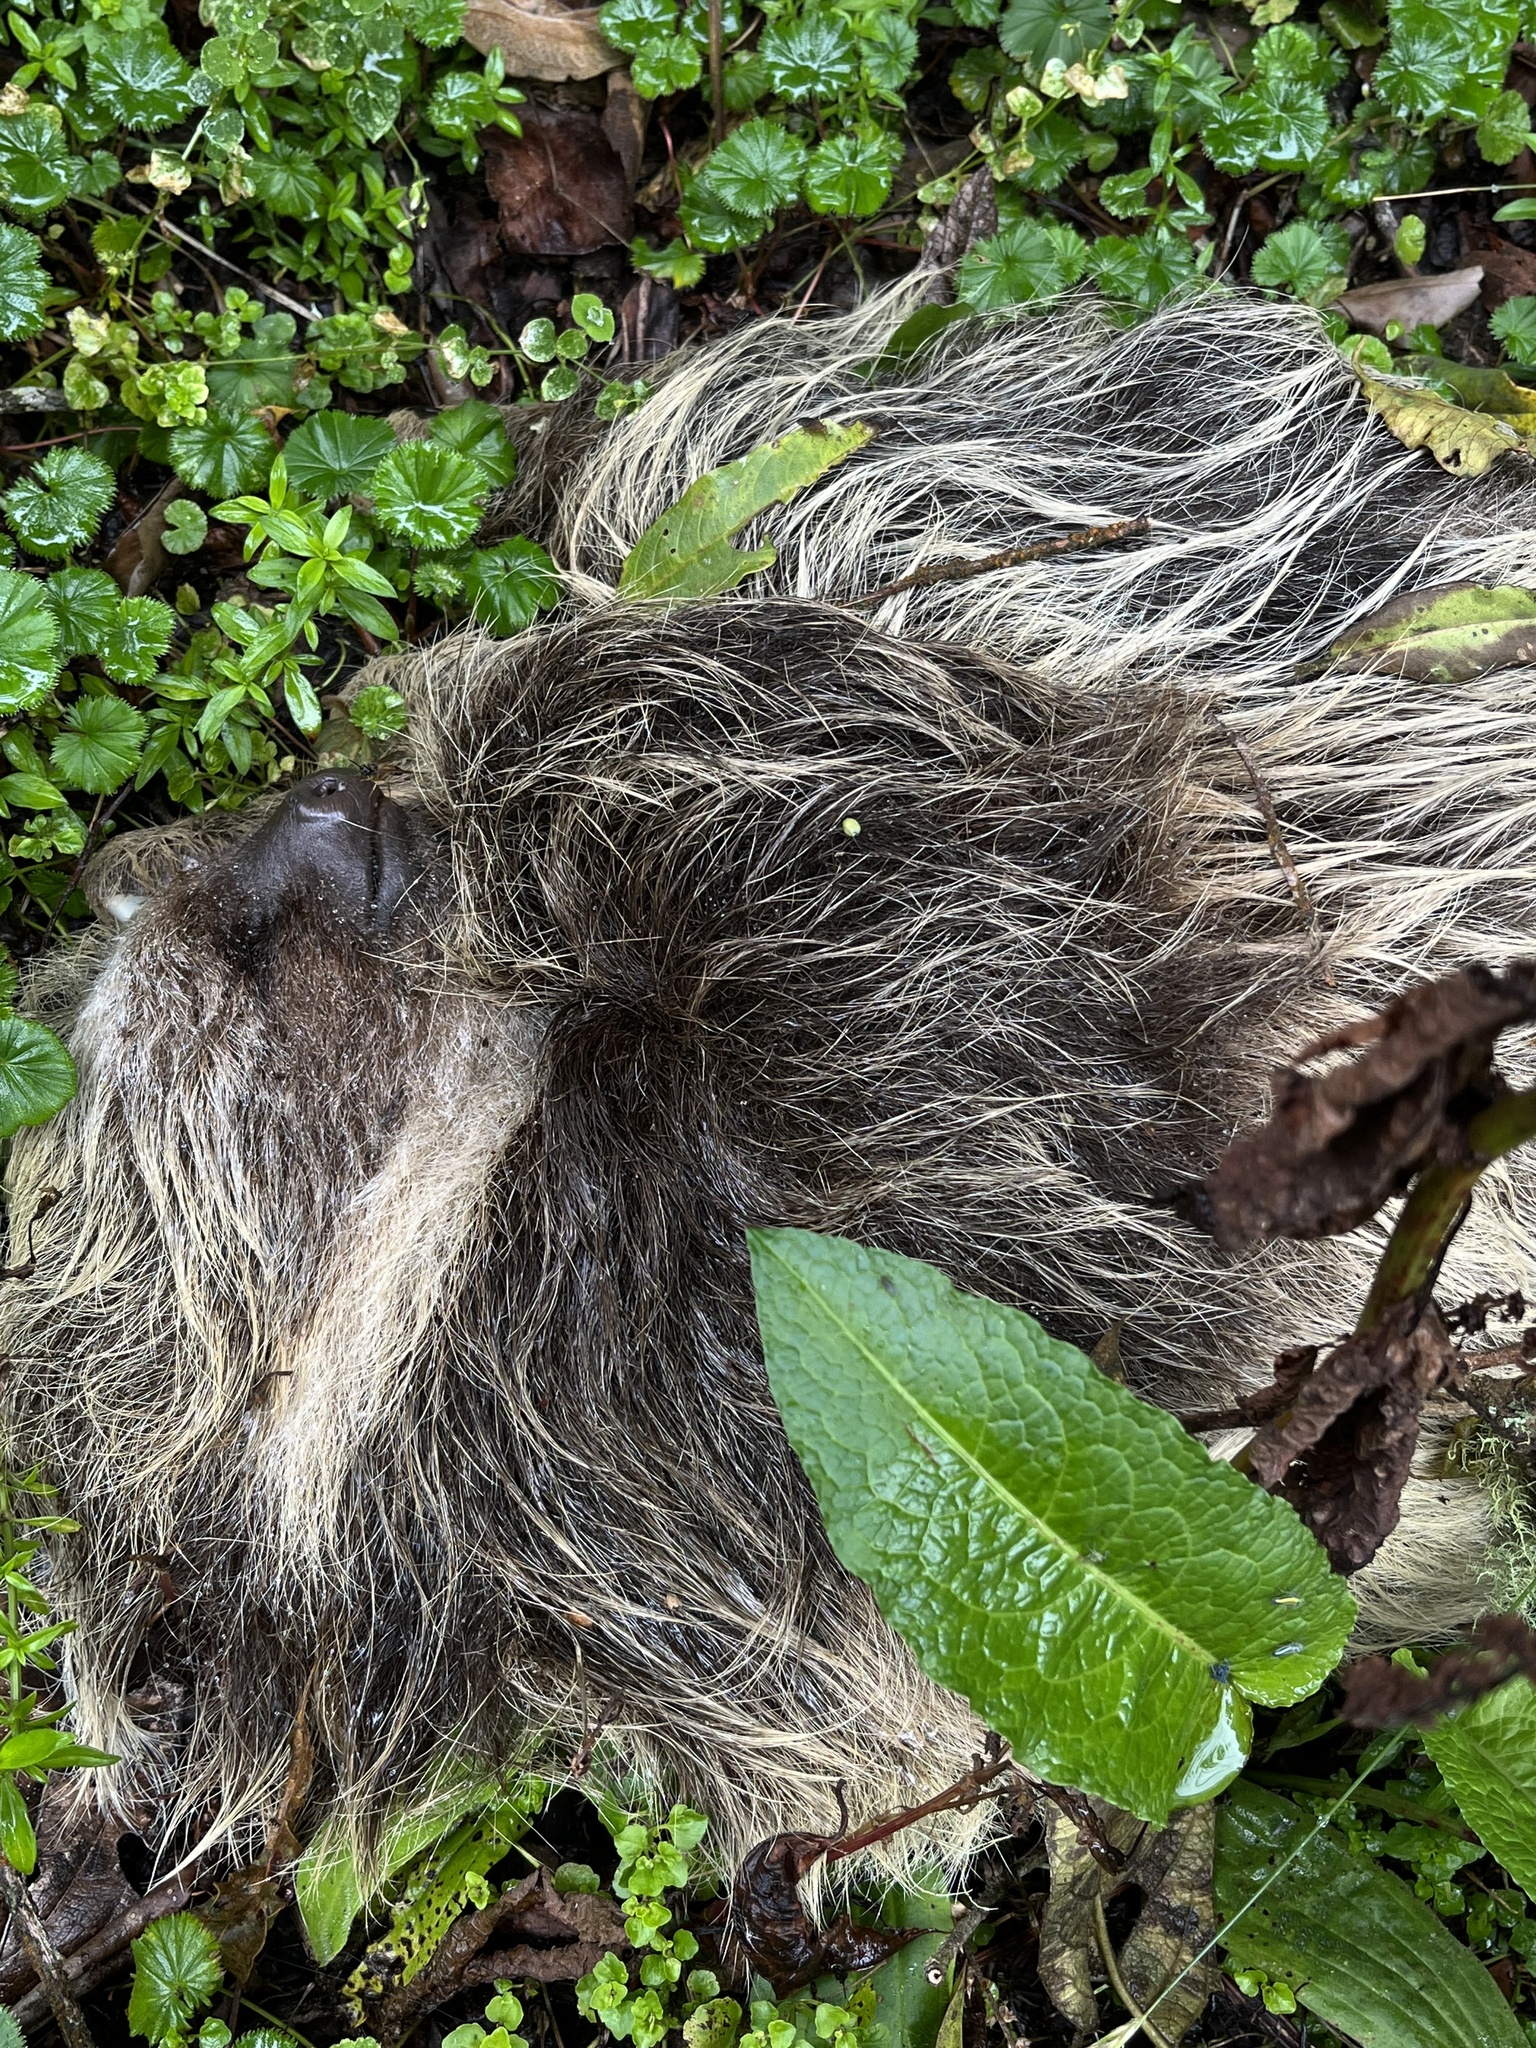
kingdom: Animalia
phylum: Chordata
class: Mammalia
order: Pilosa
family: Megalonychidae
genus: Choloepus
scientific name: Choloepus hoffmanni
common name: Hoffmann's two-toed sloth
